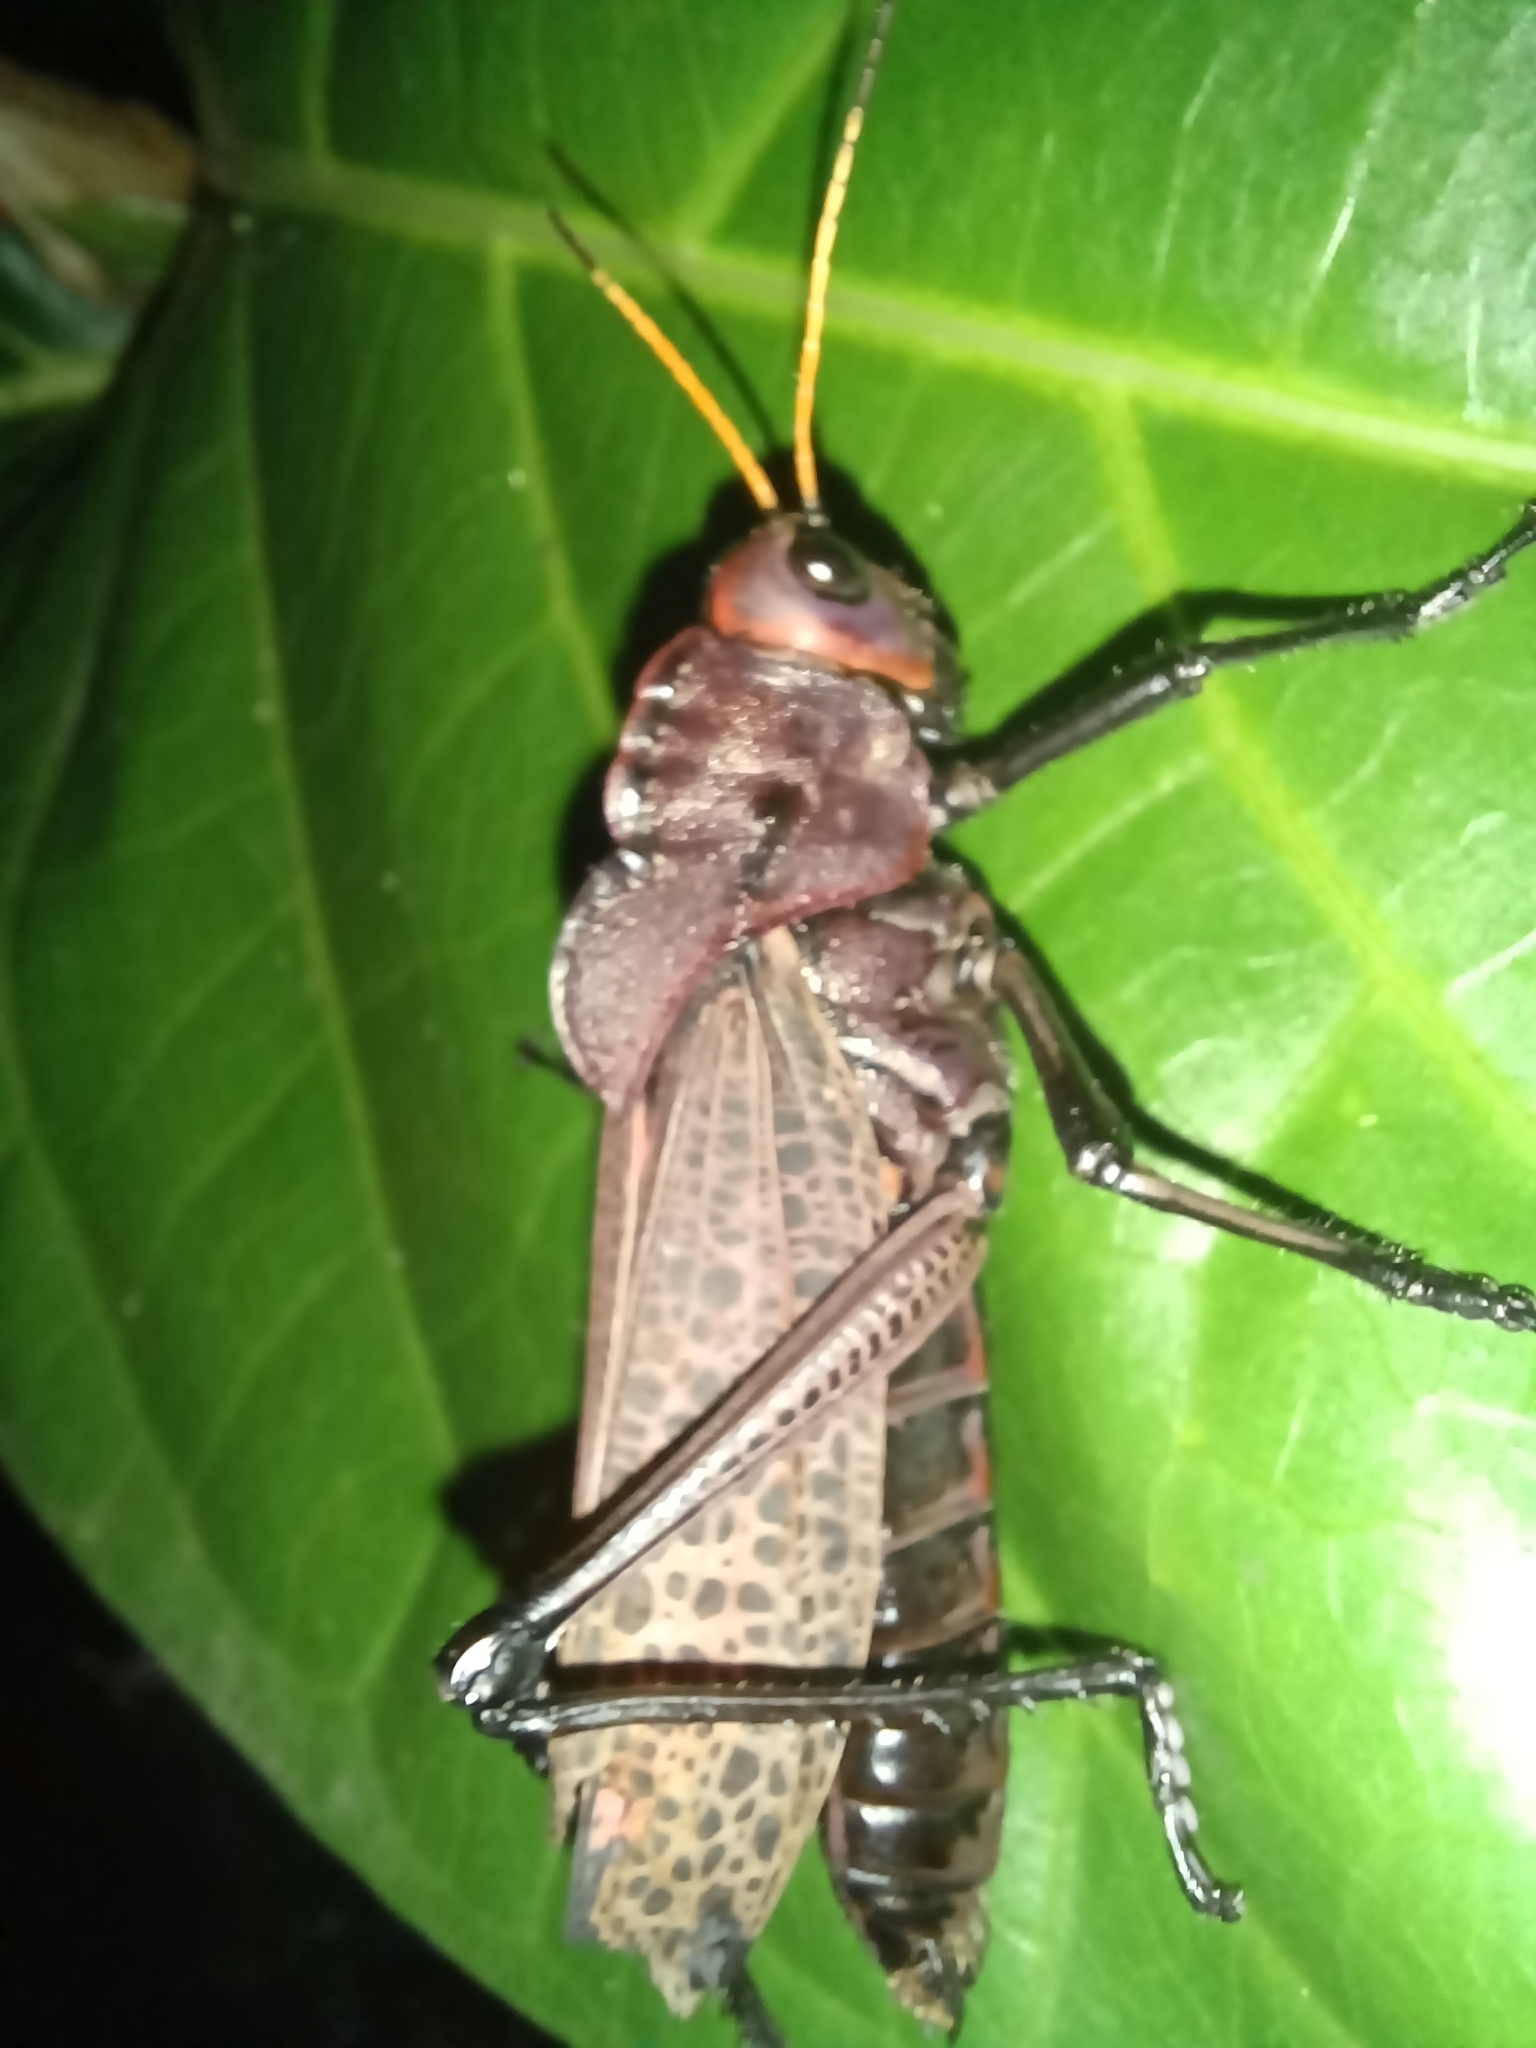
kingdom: Animalia
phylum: Arthropoda
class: Insecta
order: Orthoptera
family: Romaleidae
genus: Romalea
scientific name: Romalea
